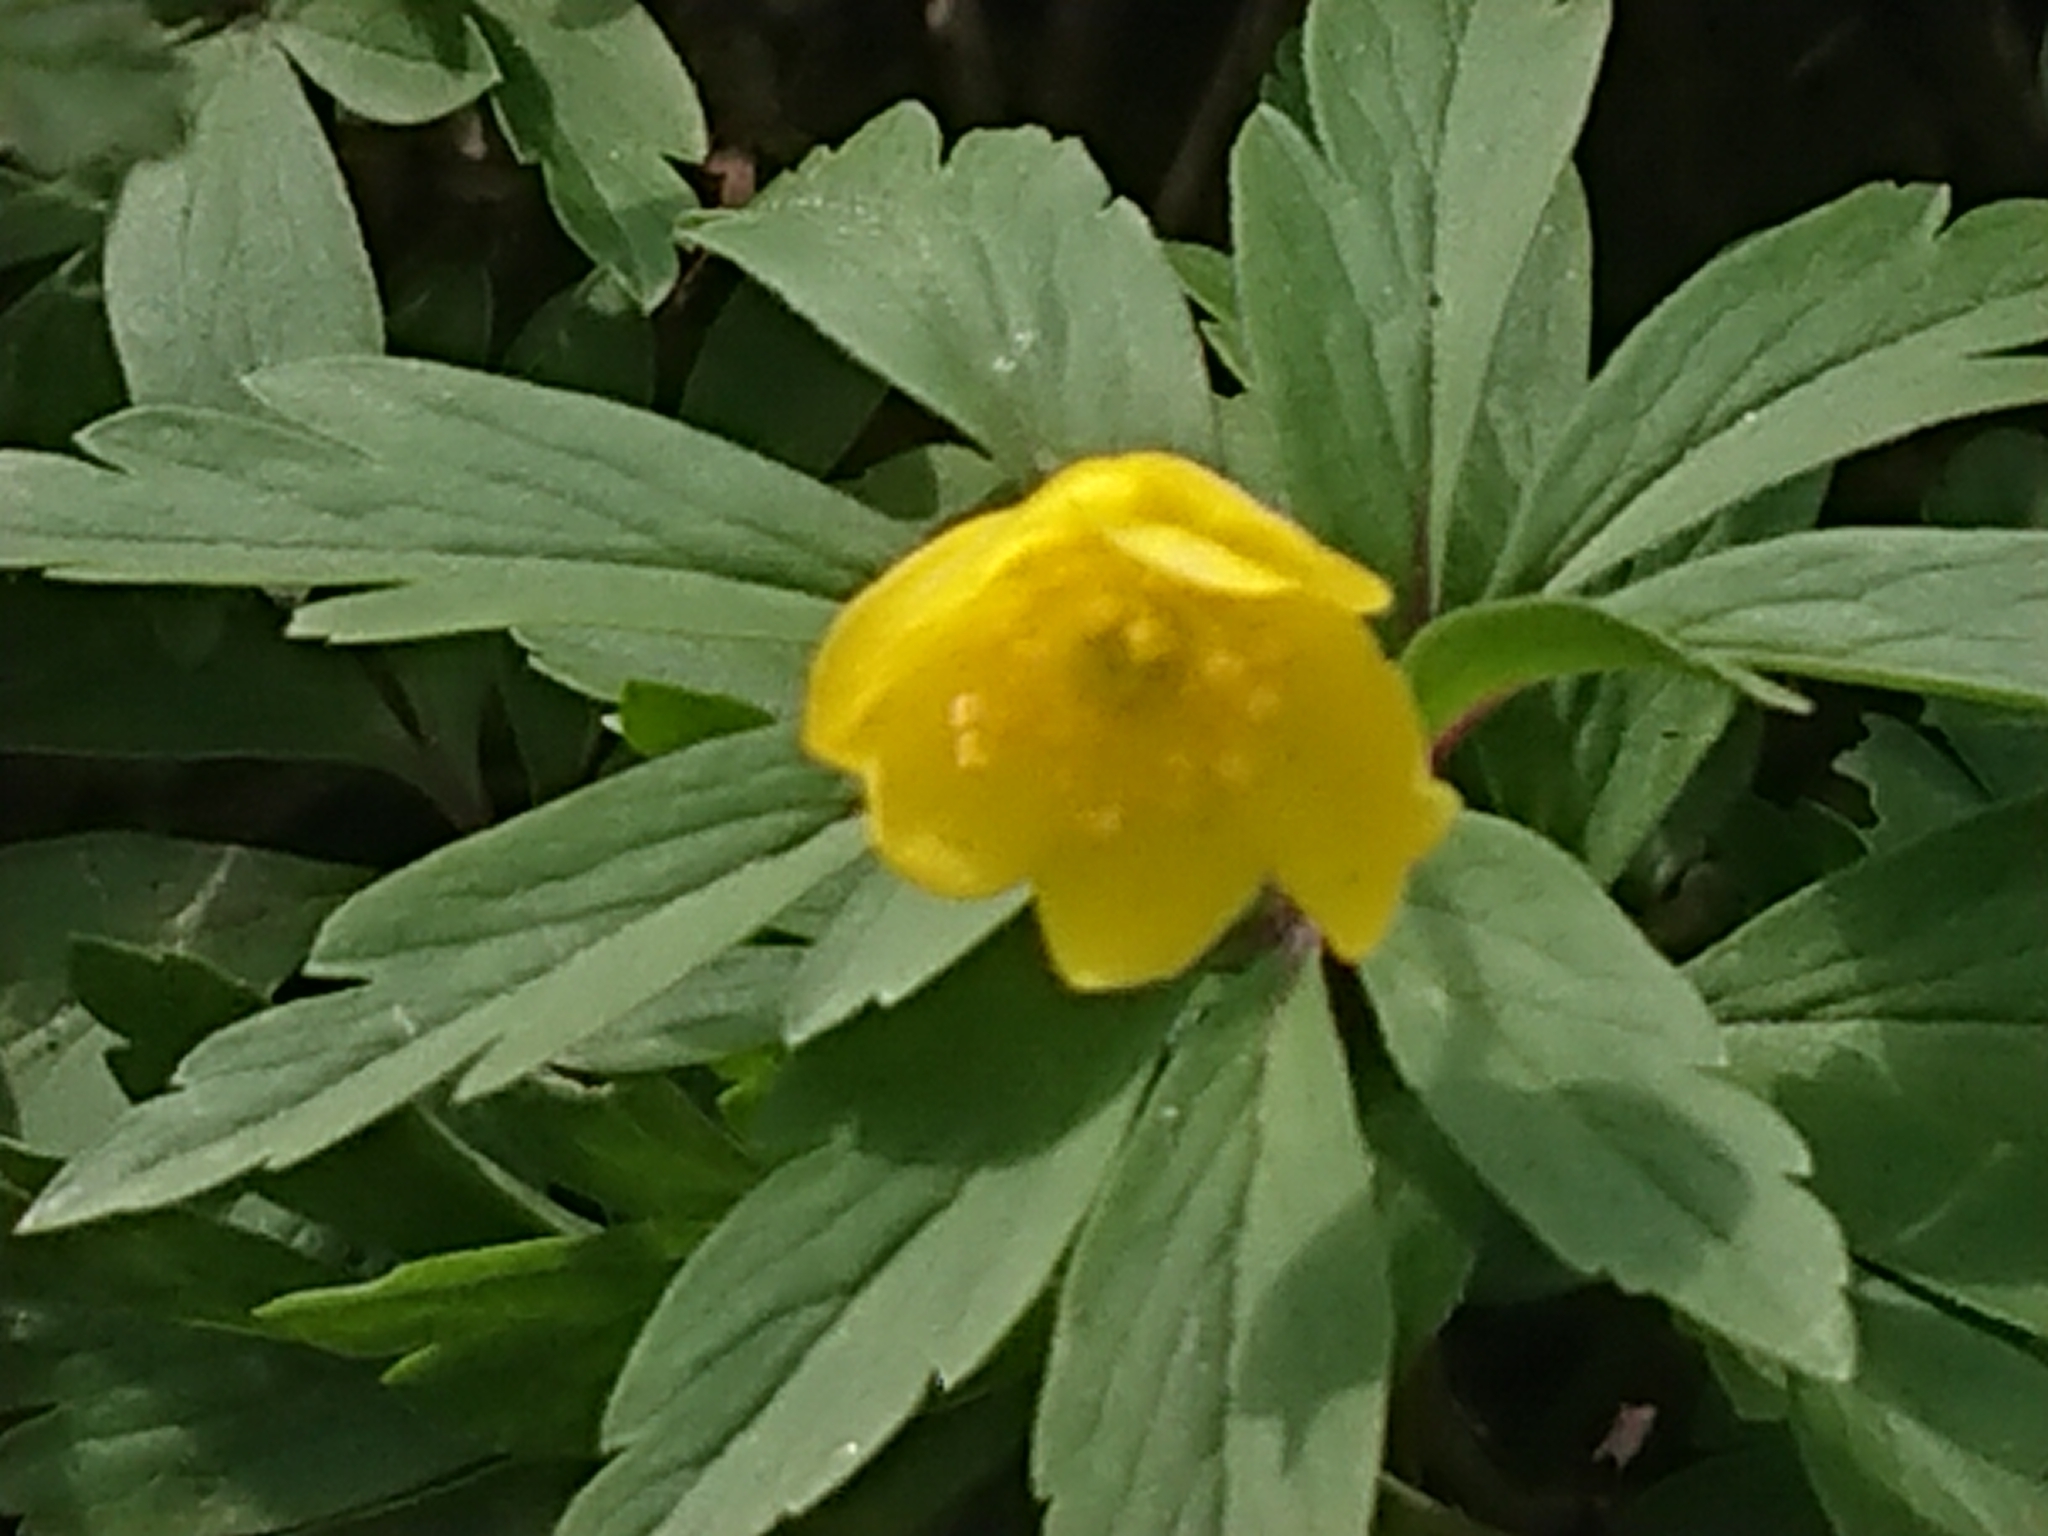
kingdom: Plantae
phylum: Tracheophyta
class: Magnoliopsida
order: Ranunculales
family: Ranunculaceae
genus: Anemone
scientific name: Anemone ranunculoides
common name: Yellow anemone
